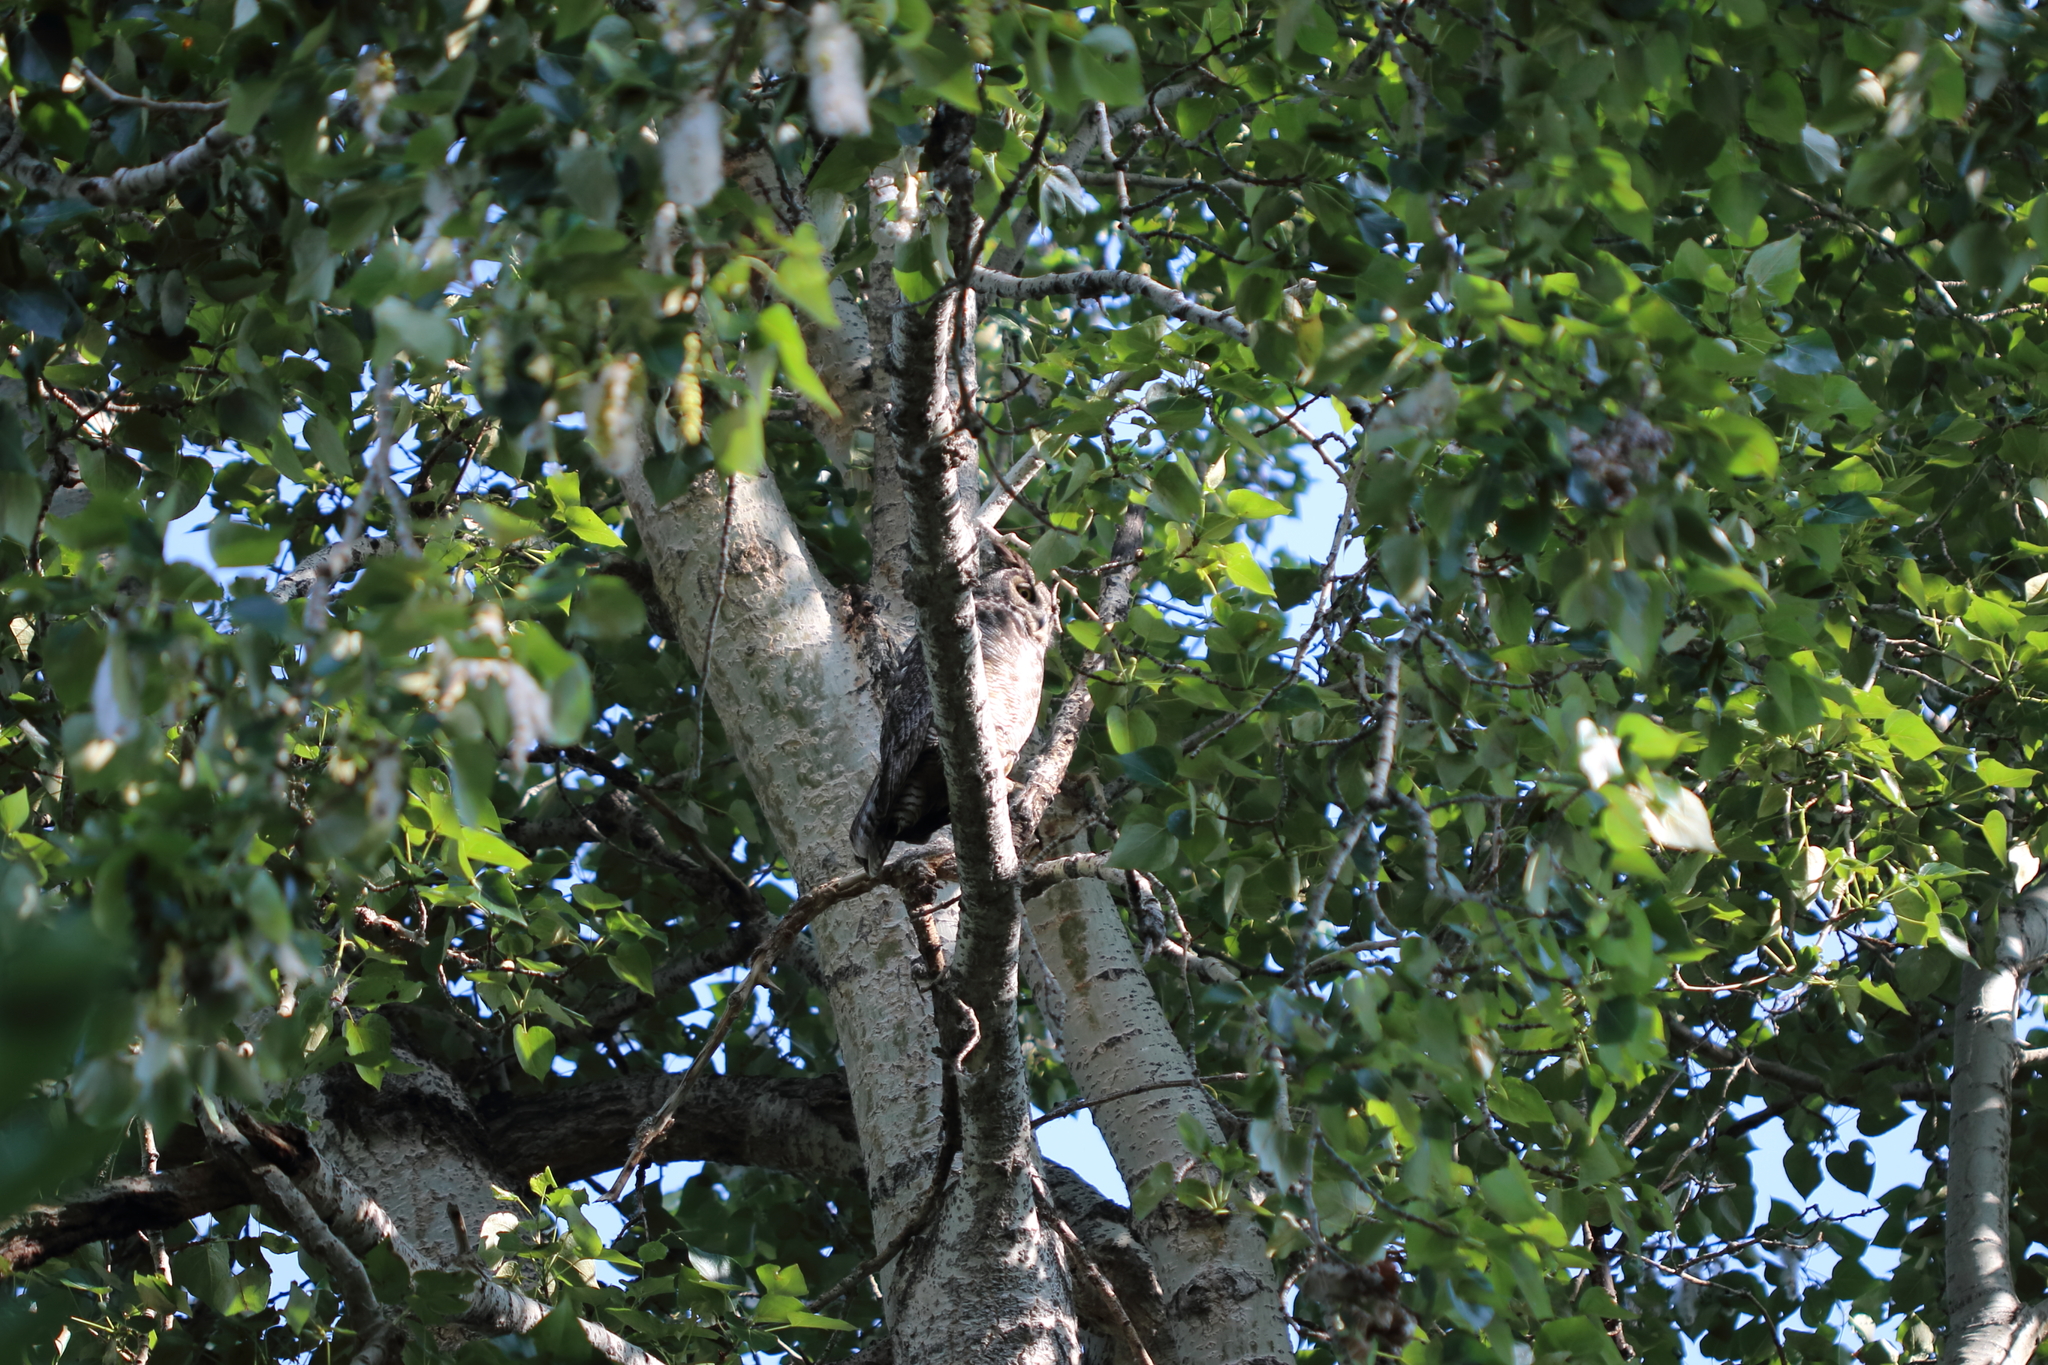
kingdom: Animalia
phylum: Chordata
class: Aves
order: Strigiformes
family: Strigidae
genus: Bubo
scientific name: Bubo virginianus
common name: Great horned owl
